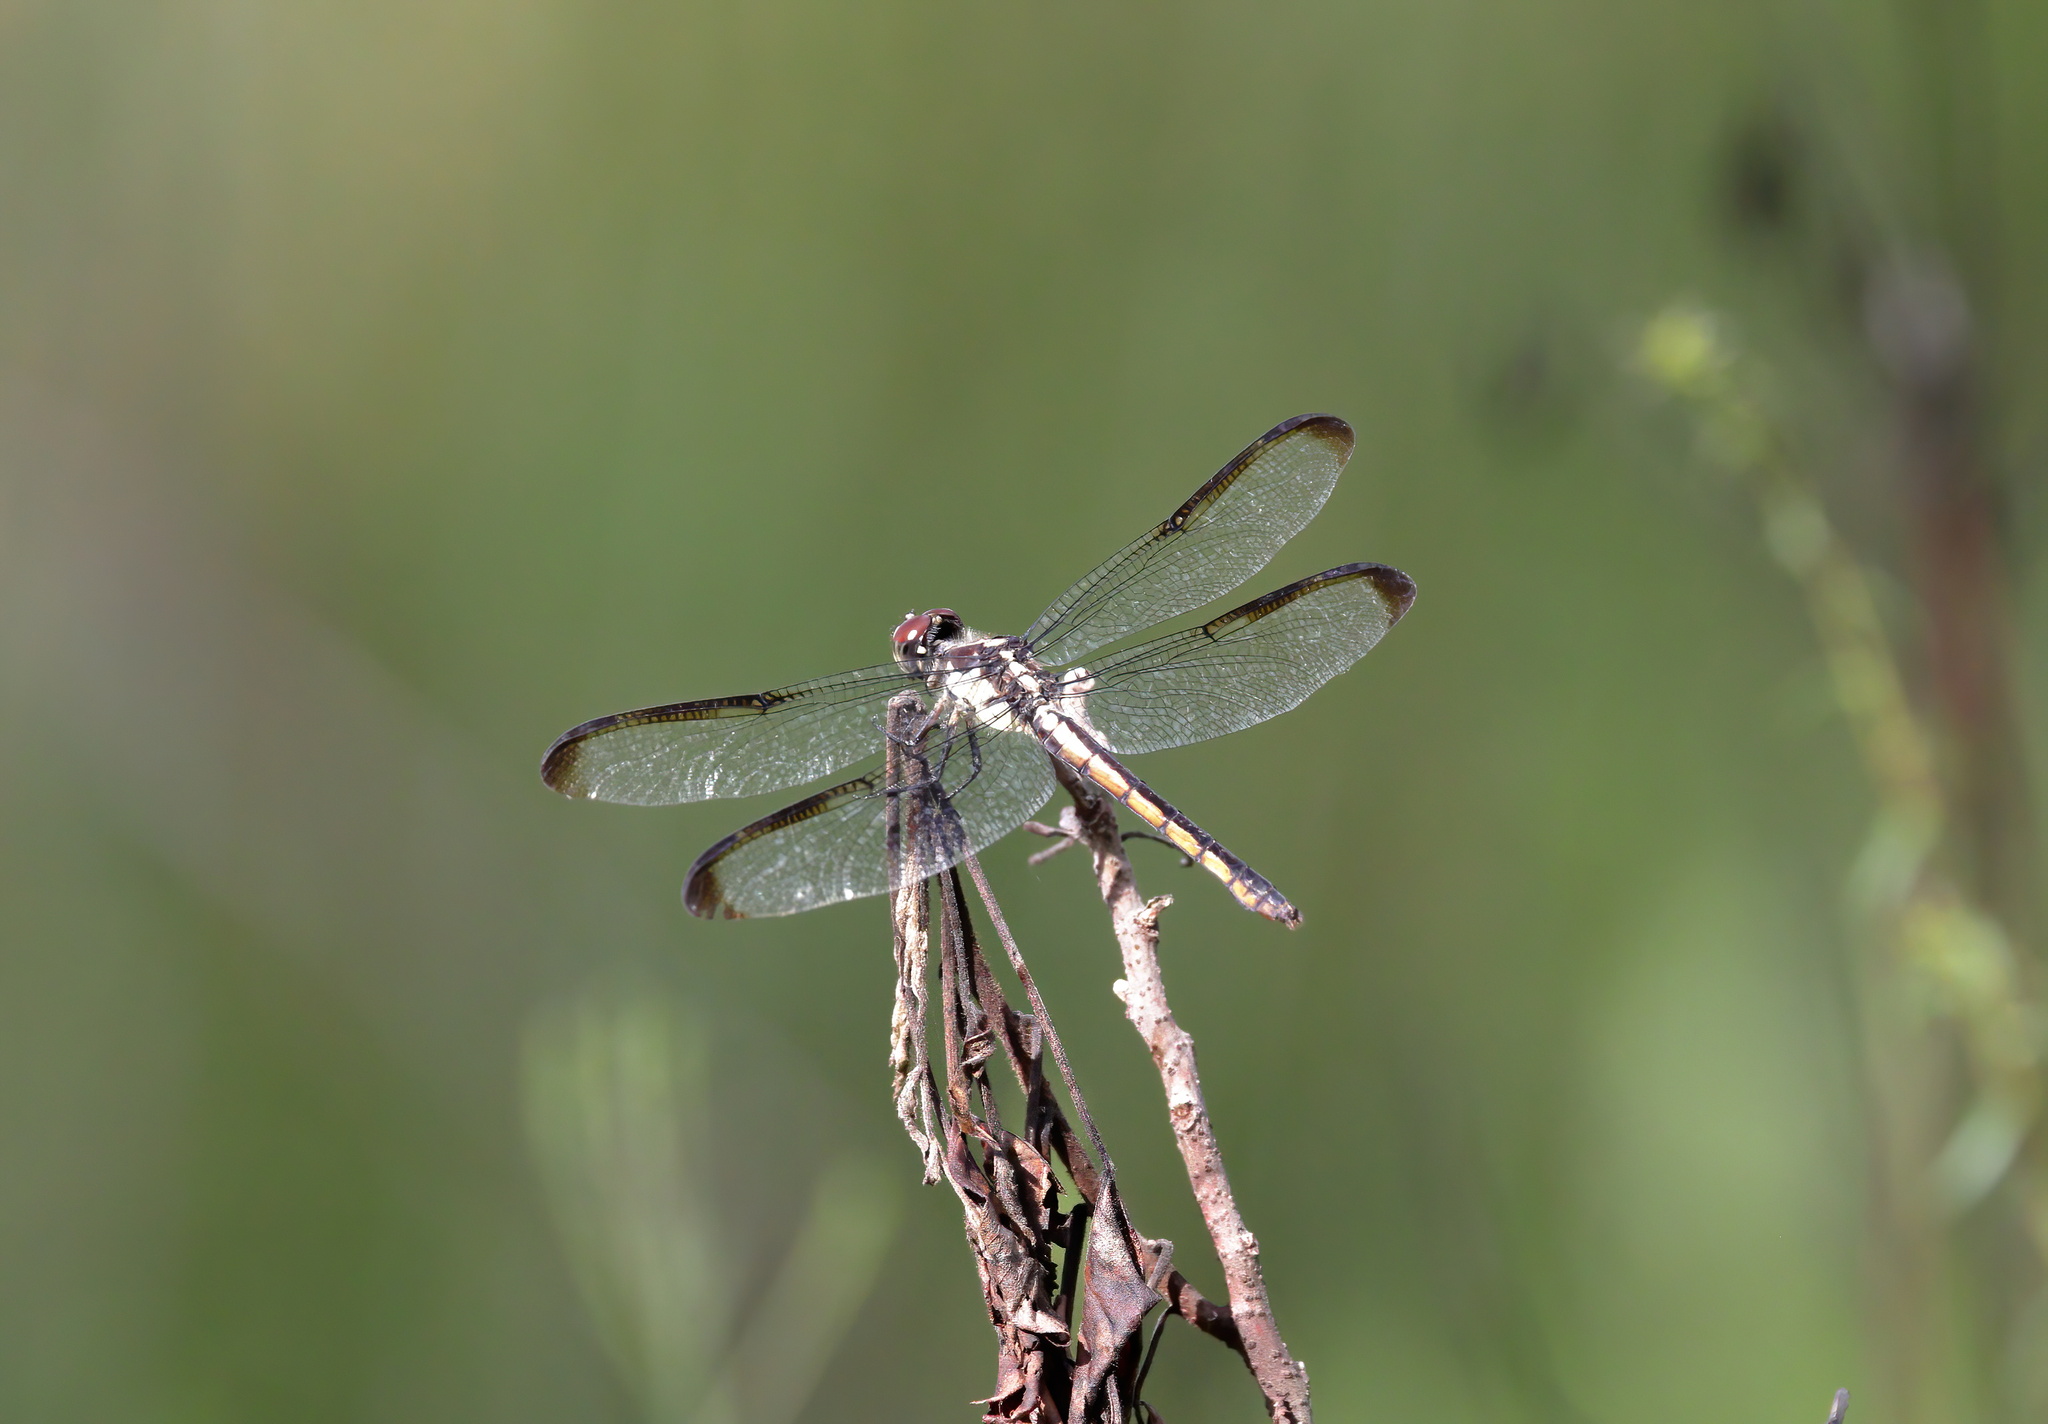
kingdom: Animalia
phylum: Arthropoda
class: Insecta
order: Odonata
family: Libellulidae
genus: Libellula
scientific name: Libellula incesta
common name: Slaty skimmer
